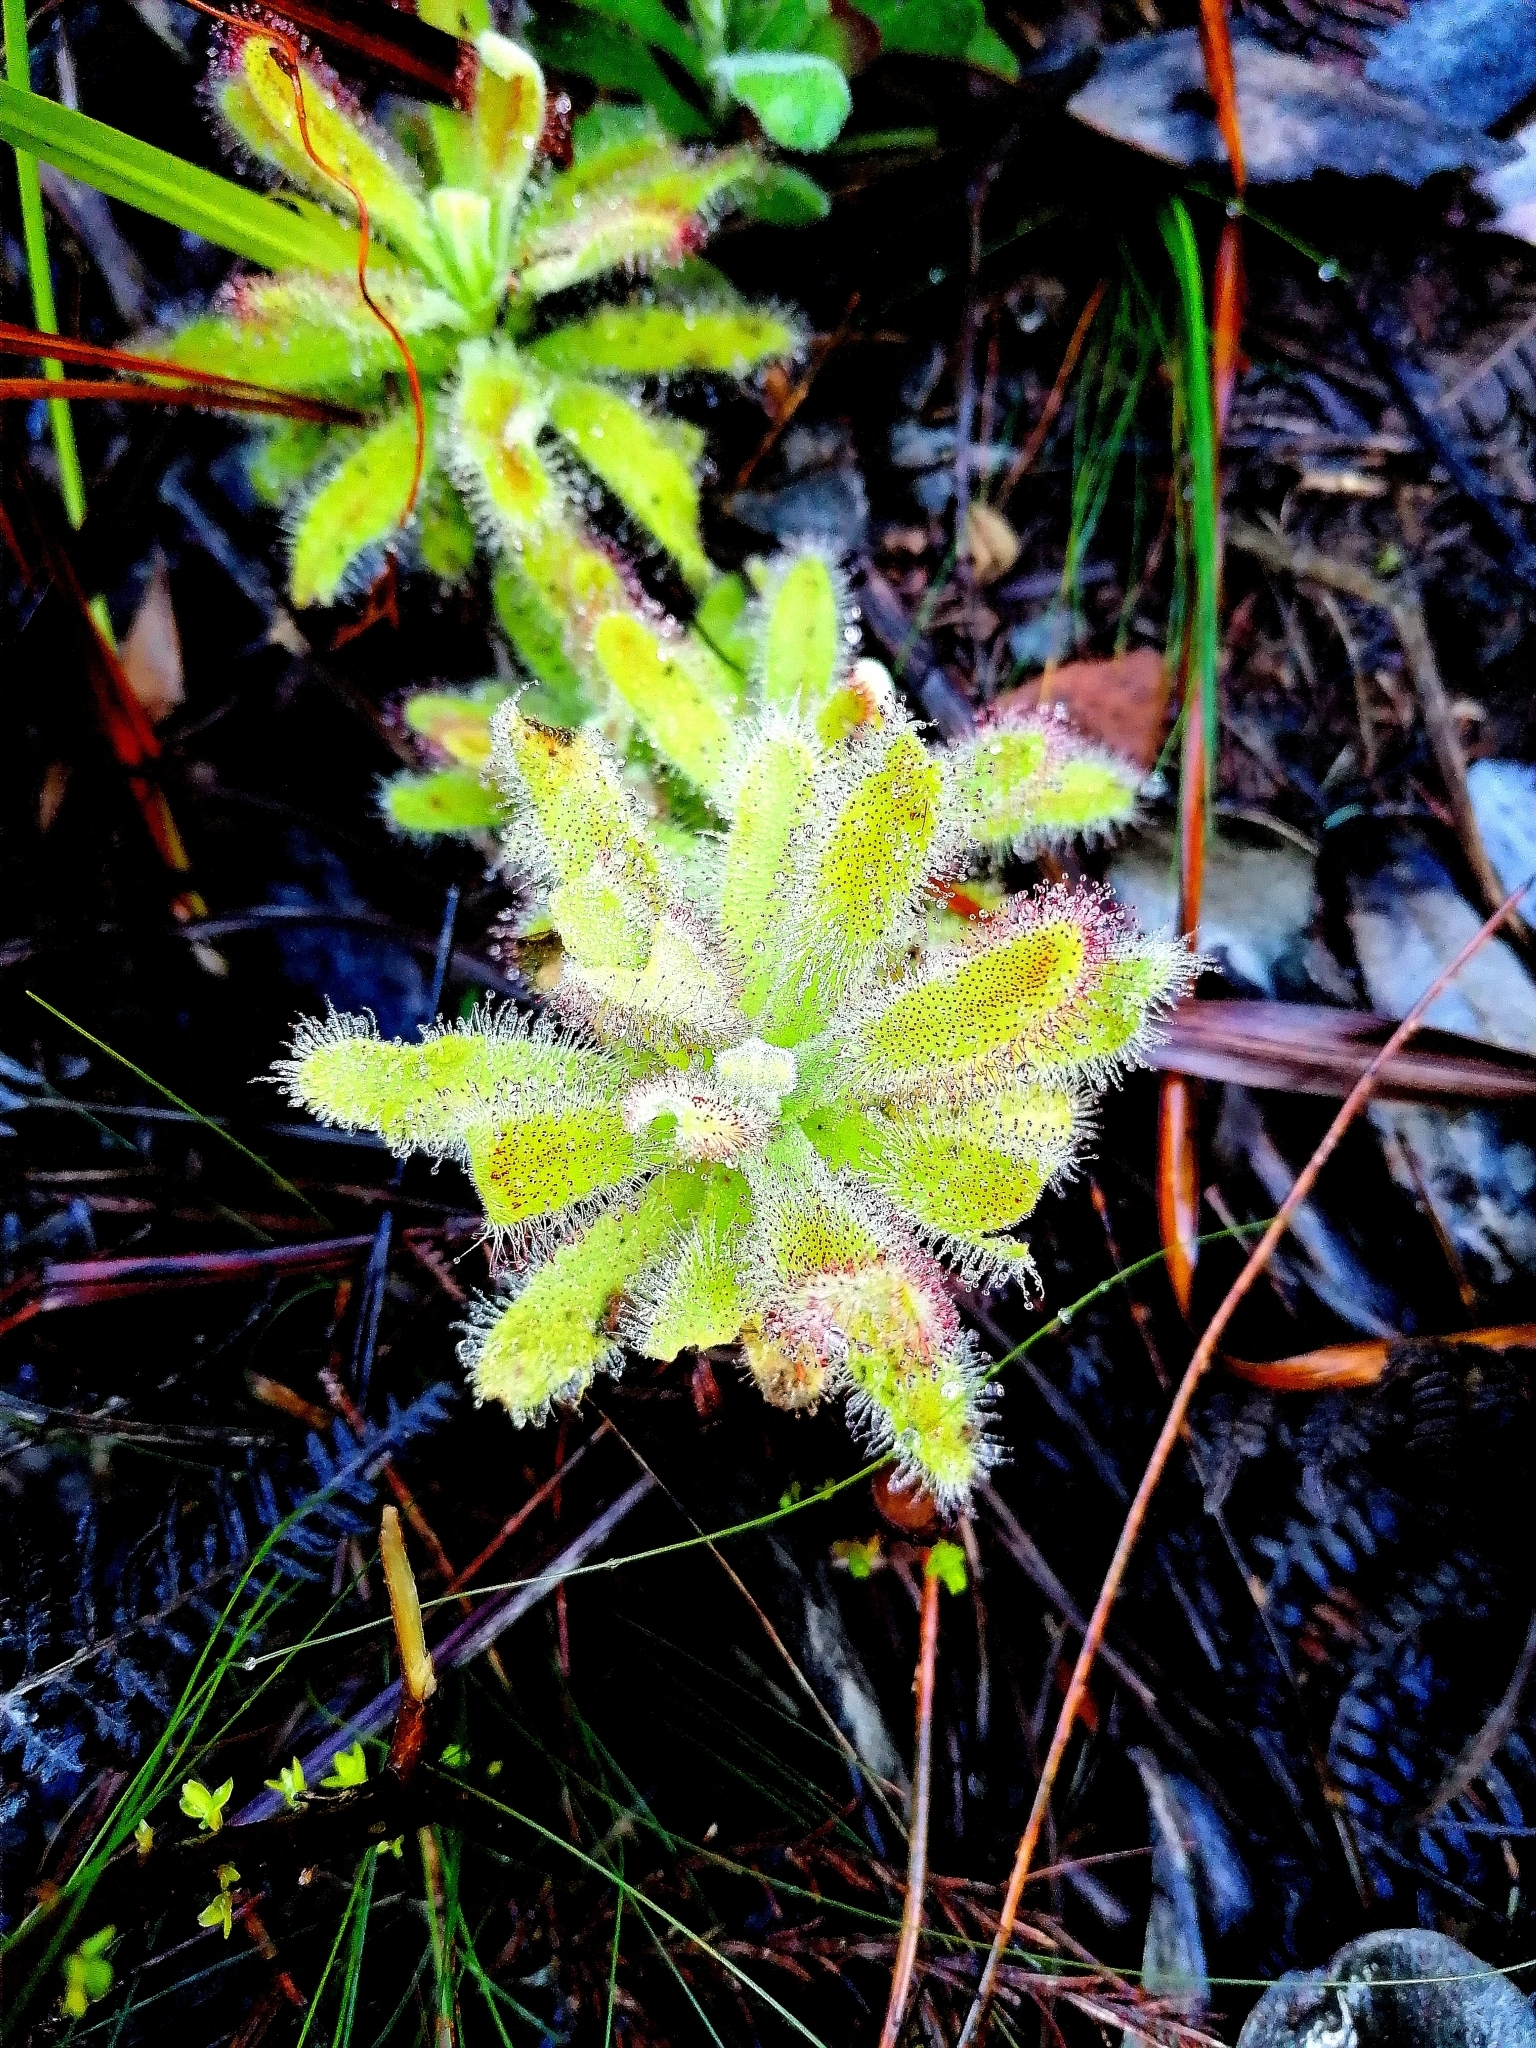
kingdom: Plantae
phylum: Tracheophyta
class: Magnoliopsida
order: Caryophyllales
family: Droseraceae
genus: Drosera
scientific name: Drosera hilaris
